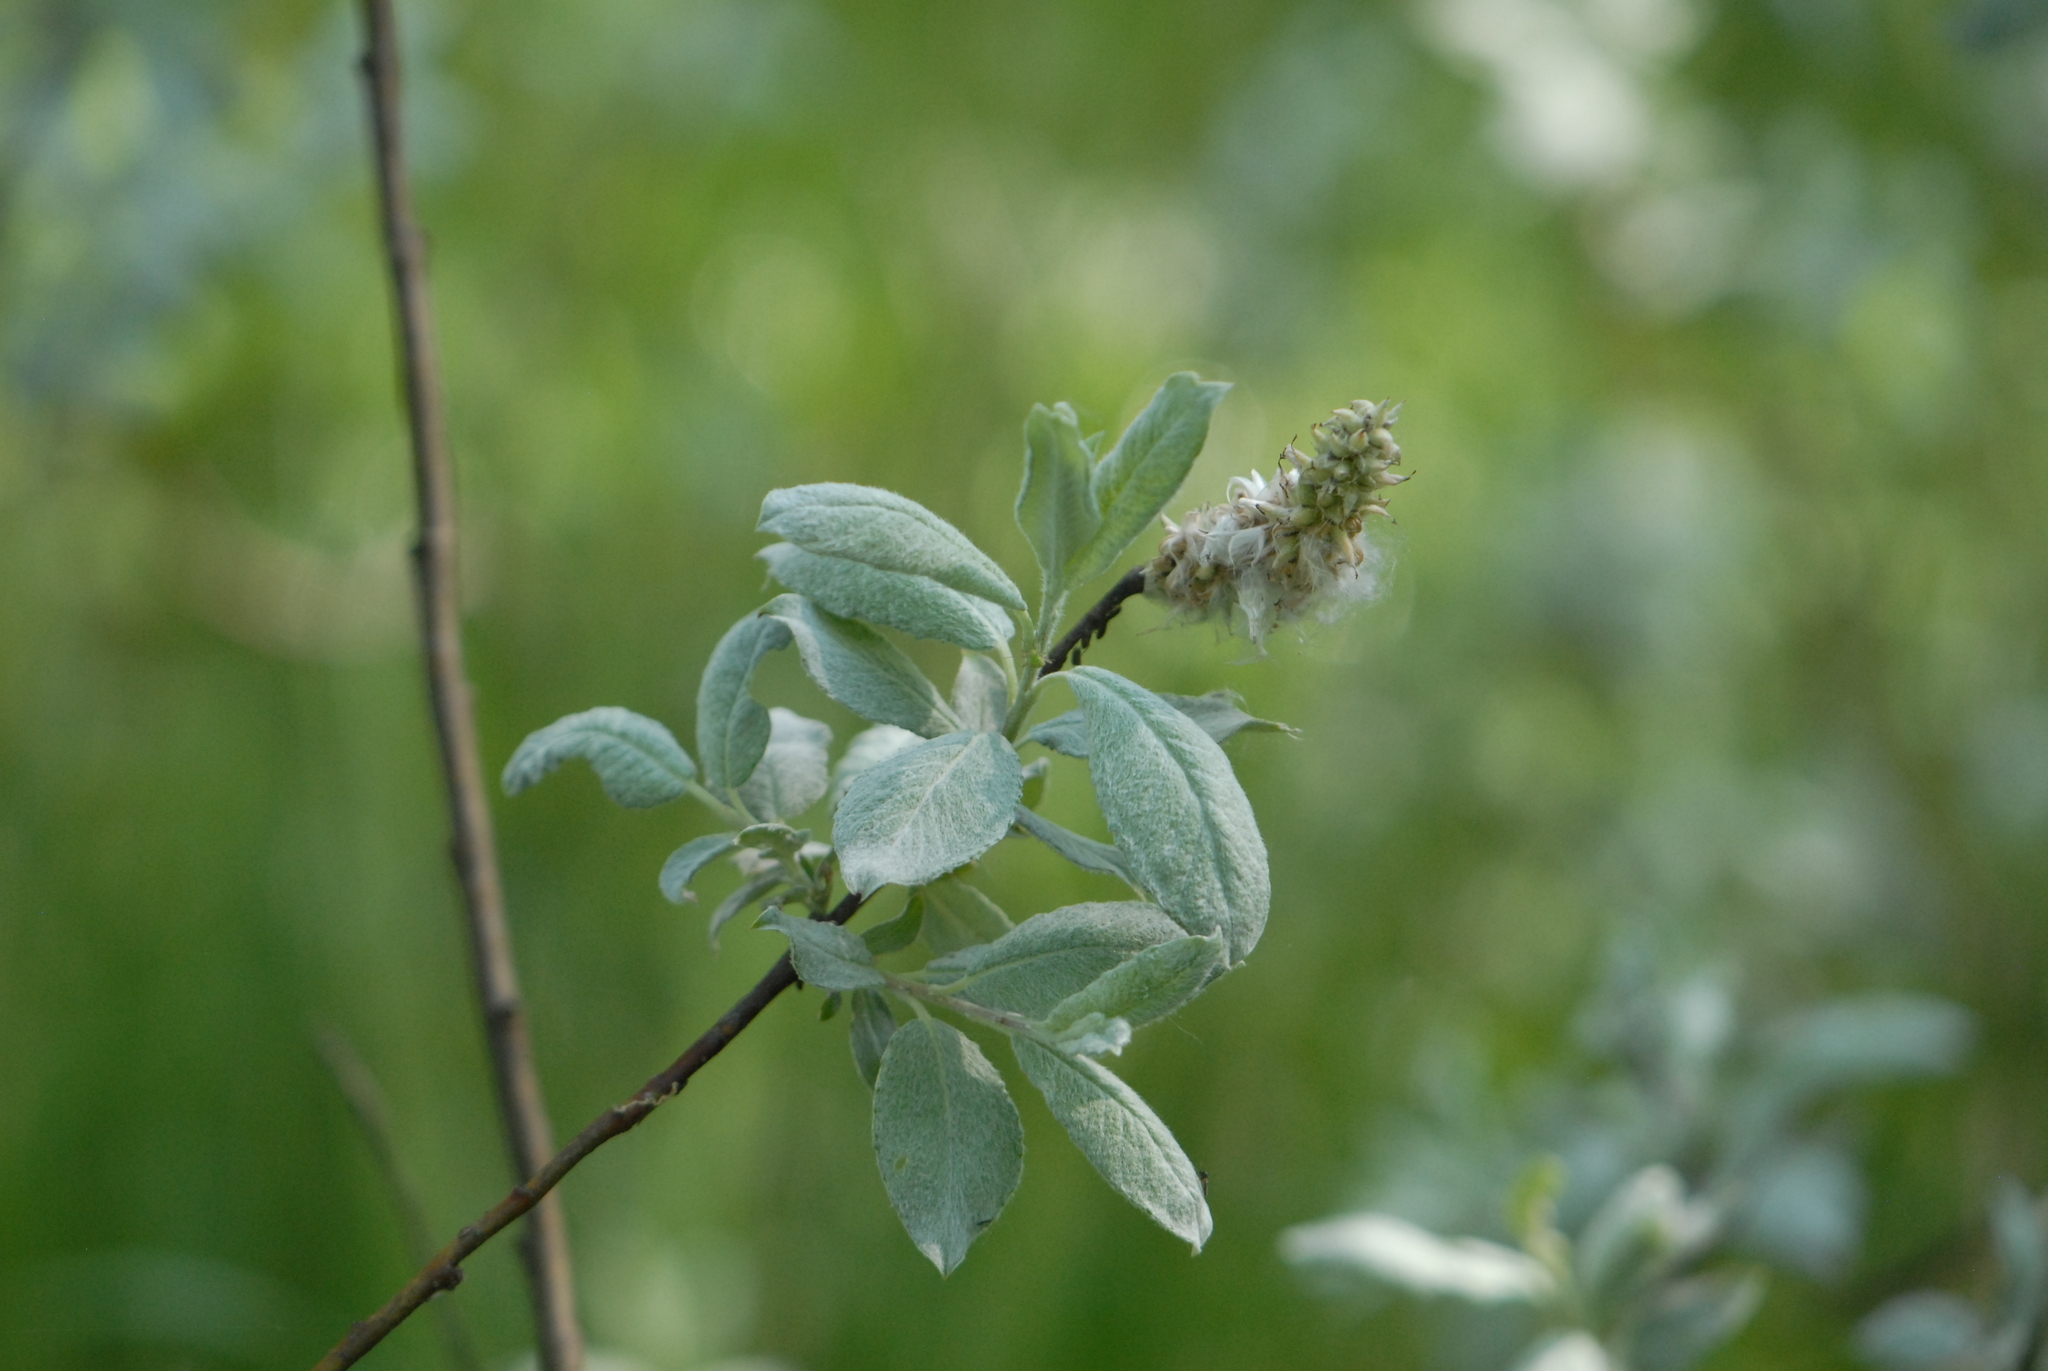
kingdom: Plantae
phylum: Tracheophyta
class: Magnoliopsida
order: Malpighiales
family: Salicaceae
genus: Salix
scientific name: Salix lapponum
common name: Downy willow
